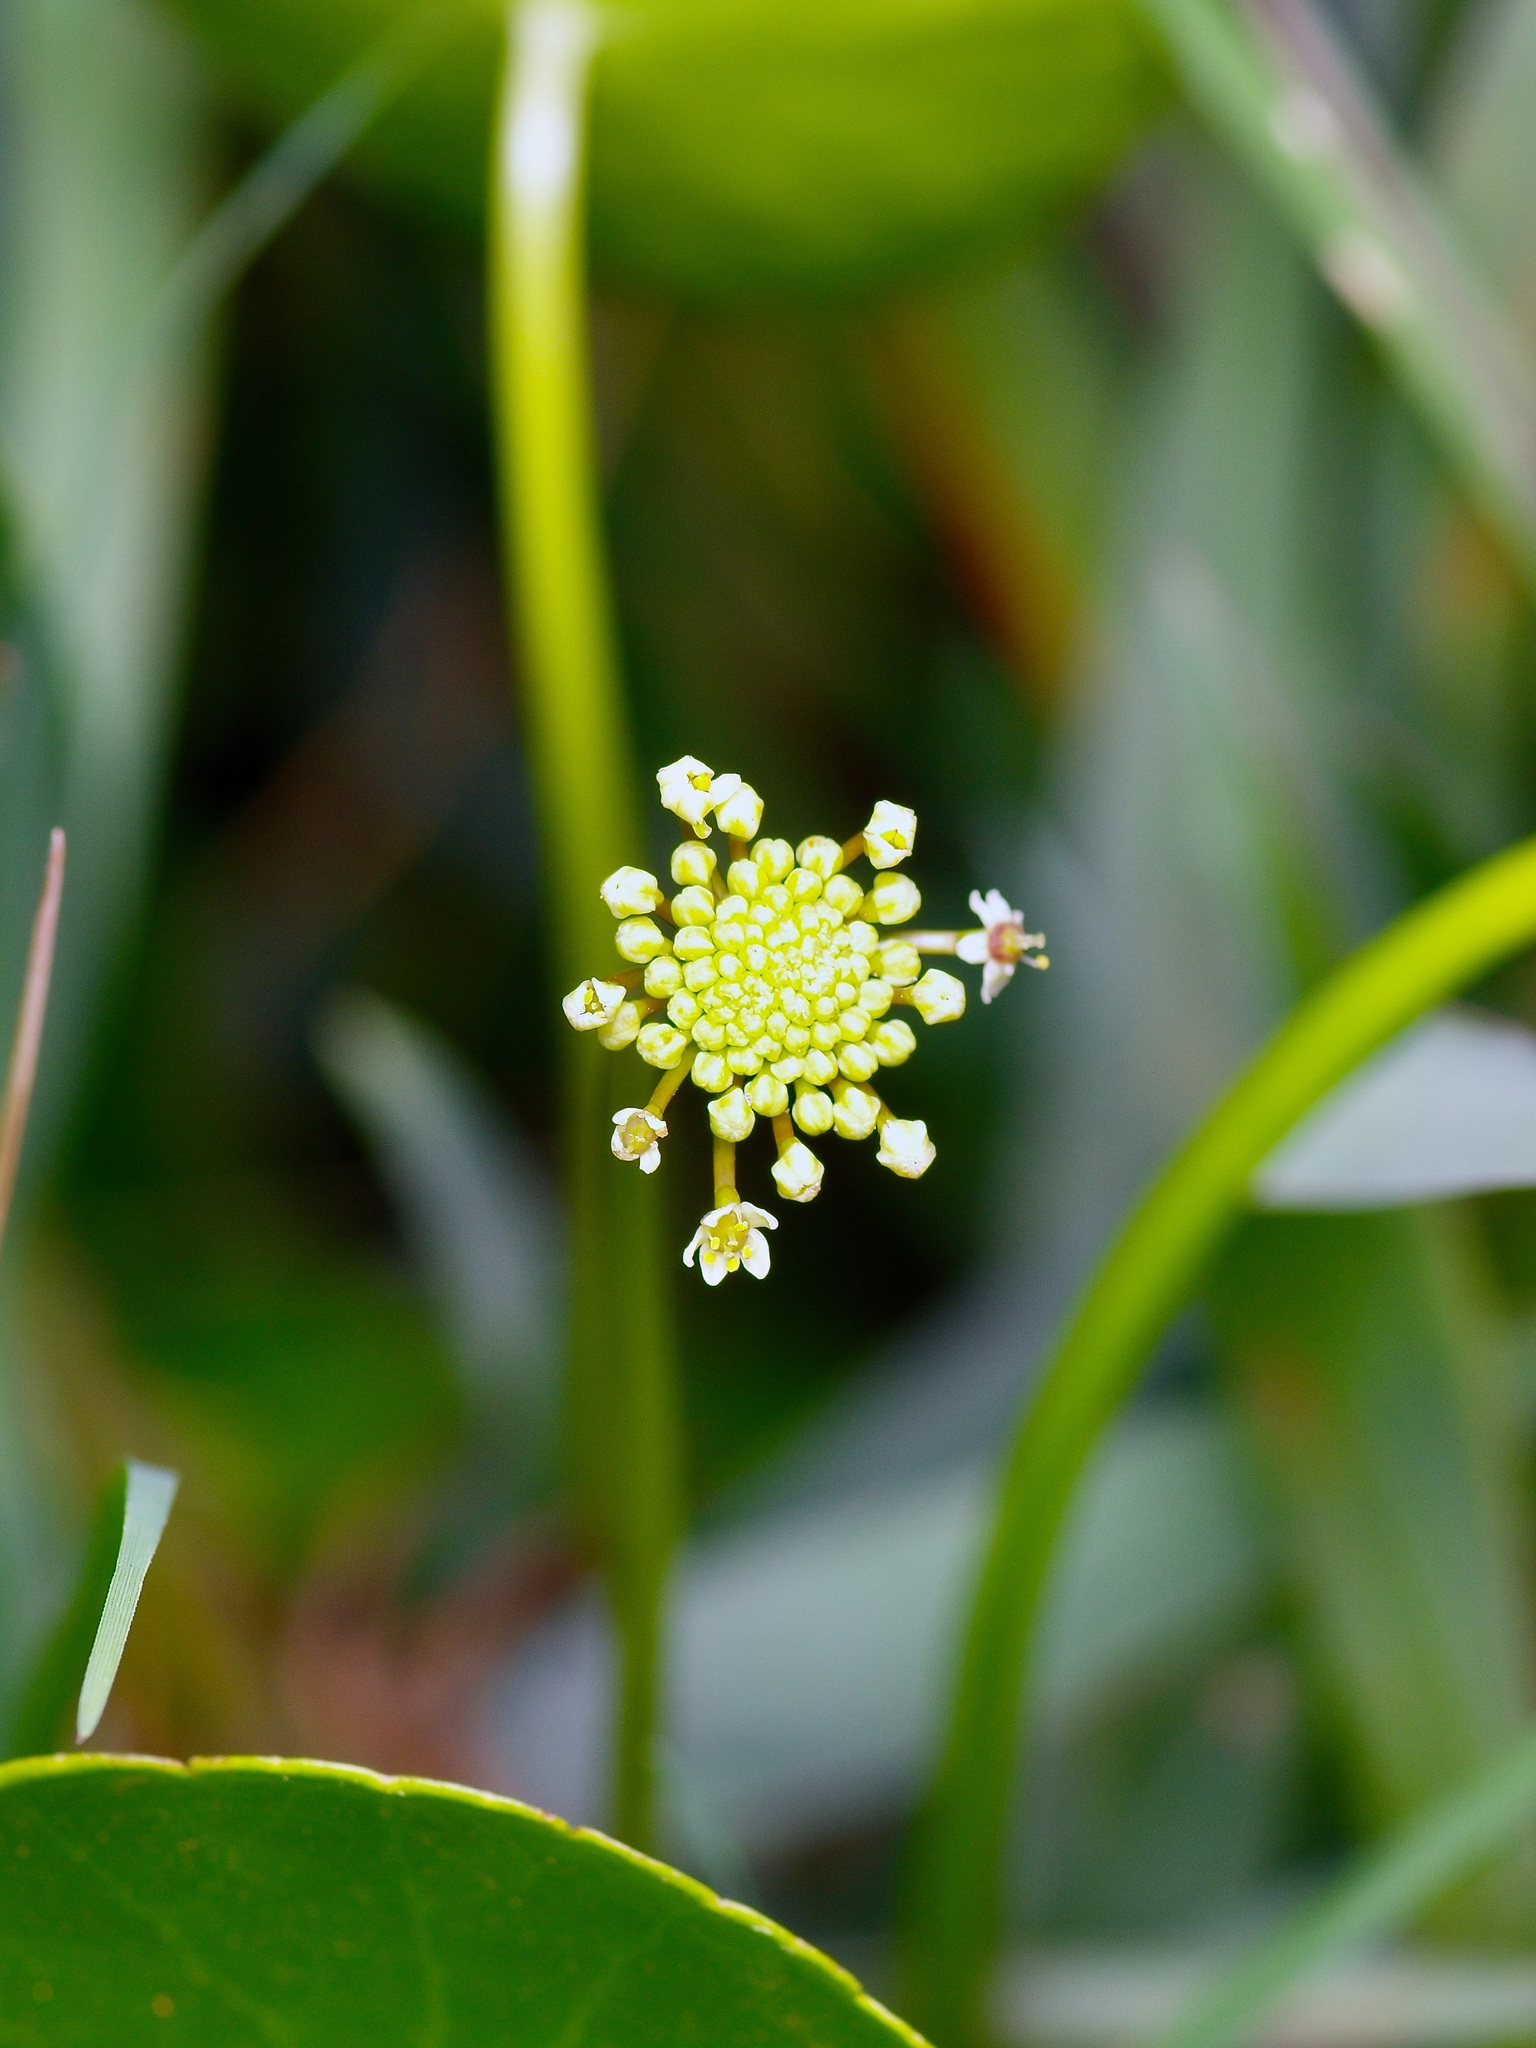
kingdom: Plantae
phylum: Tracheophyta
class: Magnoliopsida
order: Apiales
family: Araliaceae
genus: Hydrocotyle
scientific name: Hydrocotyle umbellata
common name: Water pennywort
